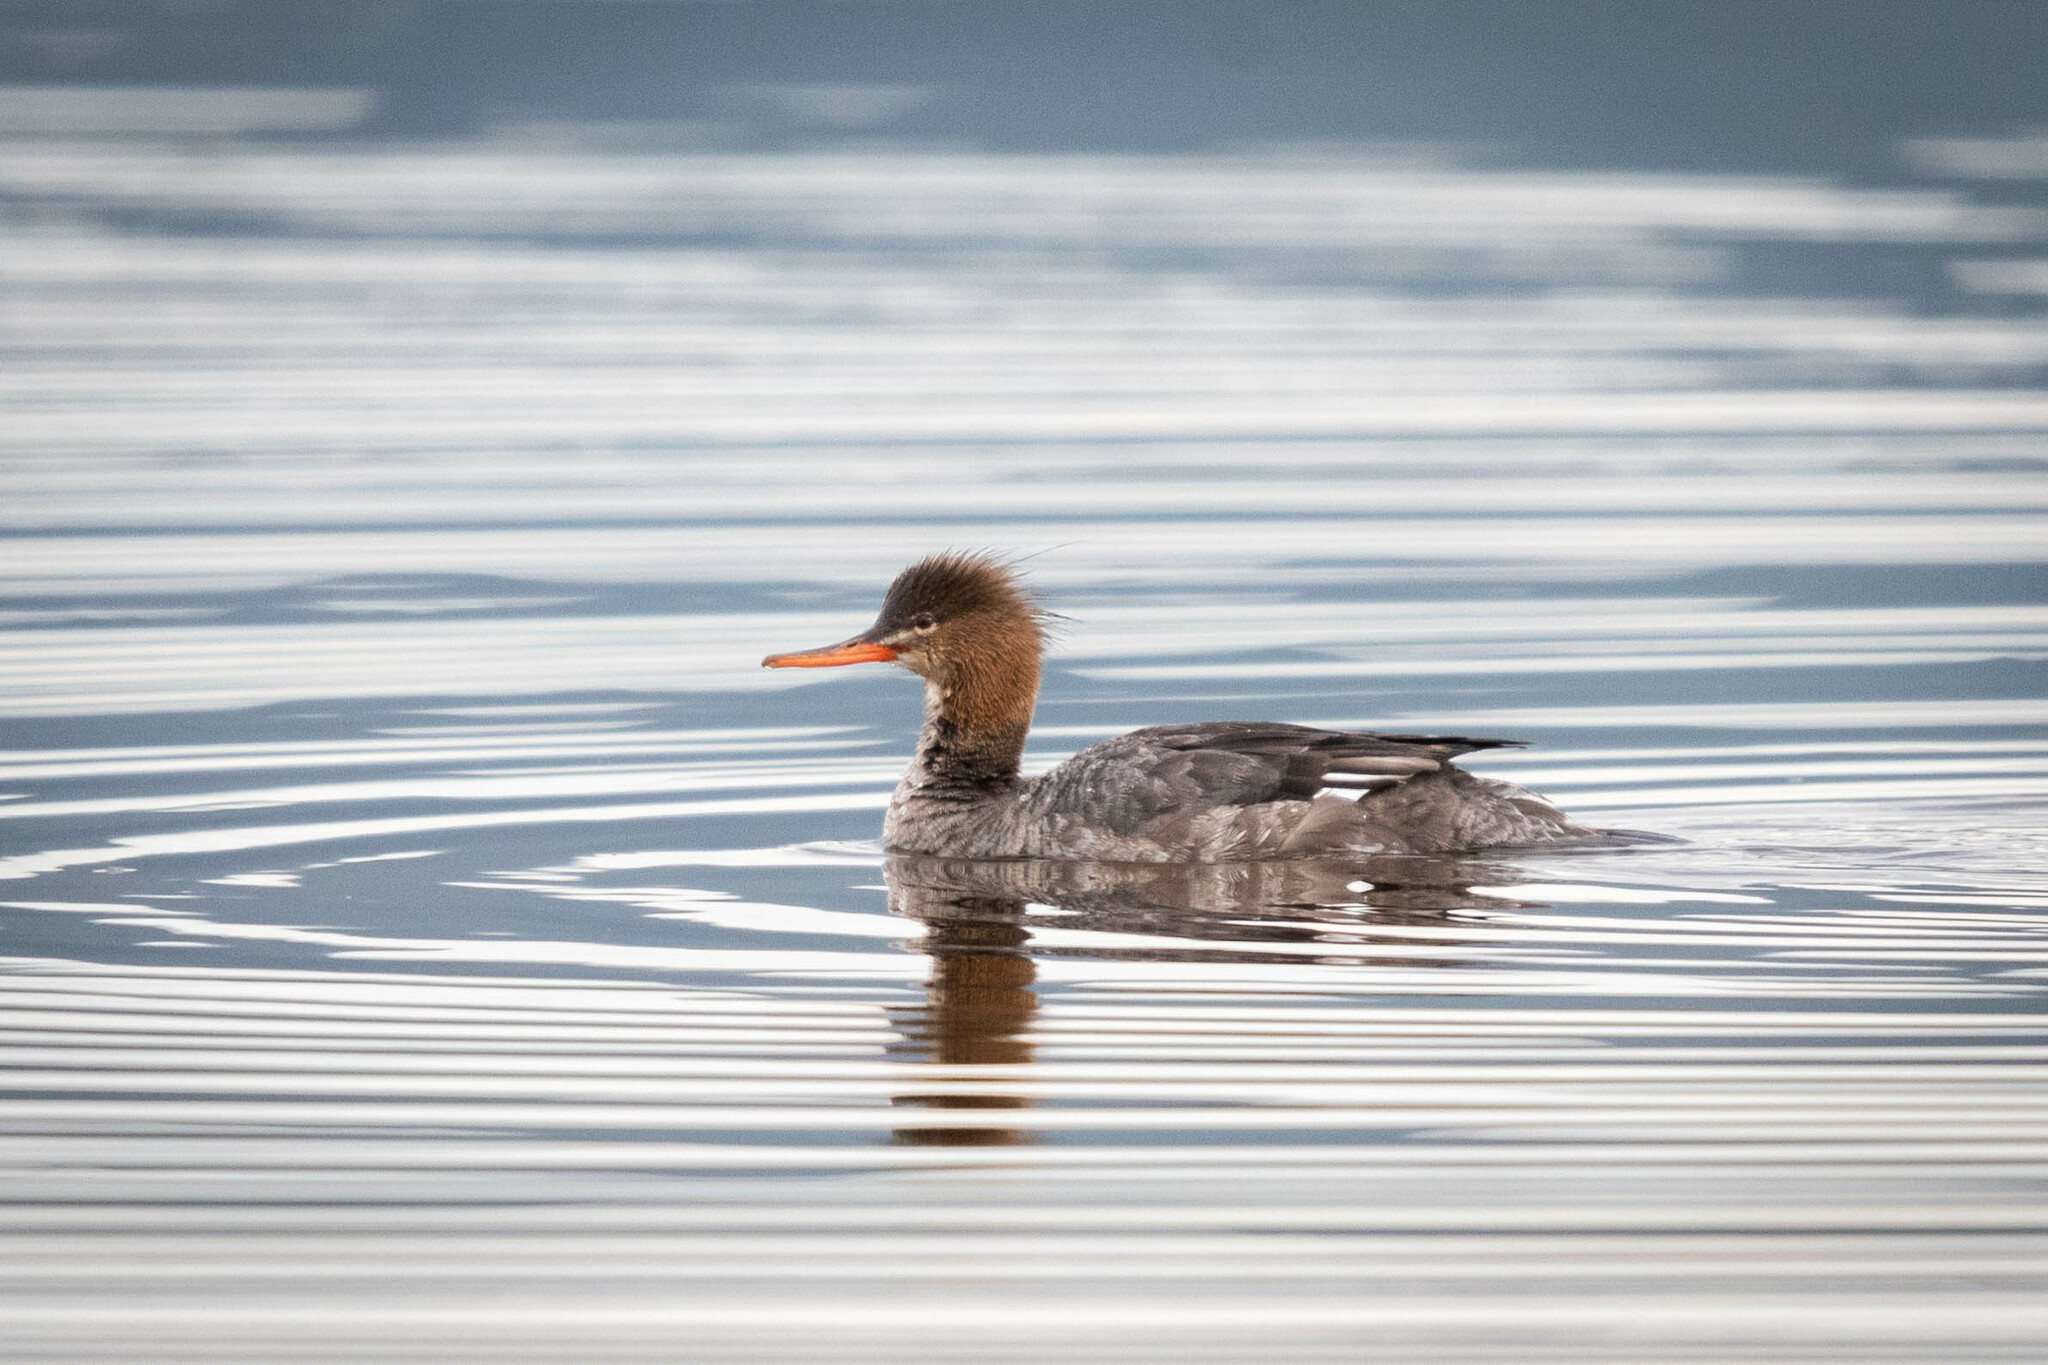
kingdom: Animalia
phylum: Chordata
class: Aves
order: Anseriformes
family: Anatidae
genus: Mergus
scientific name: Mergus serrator
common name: Red-breasted merganser
